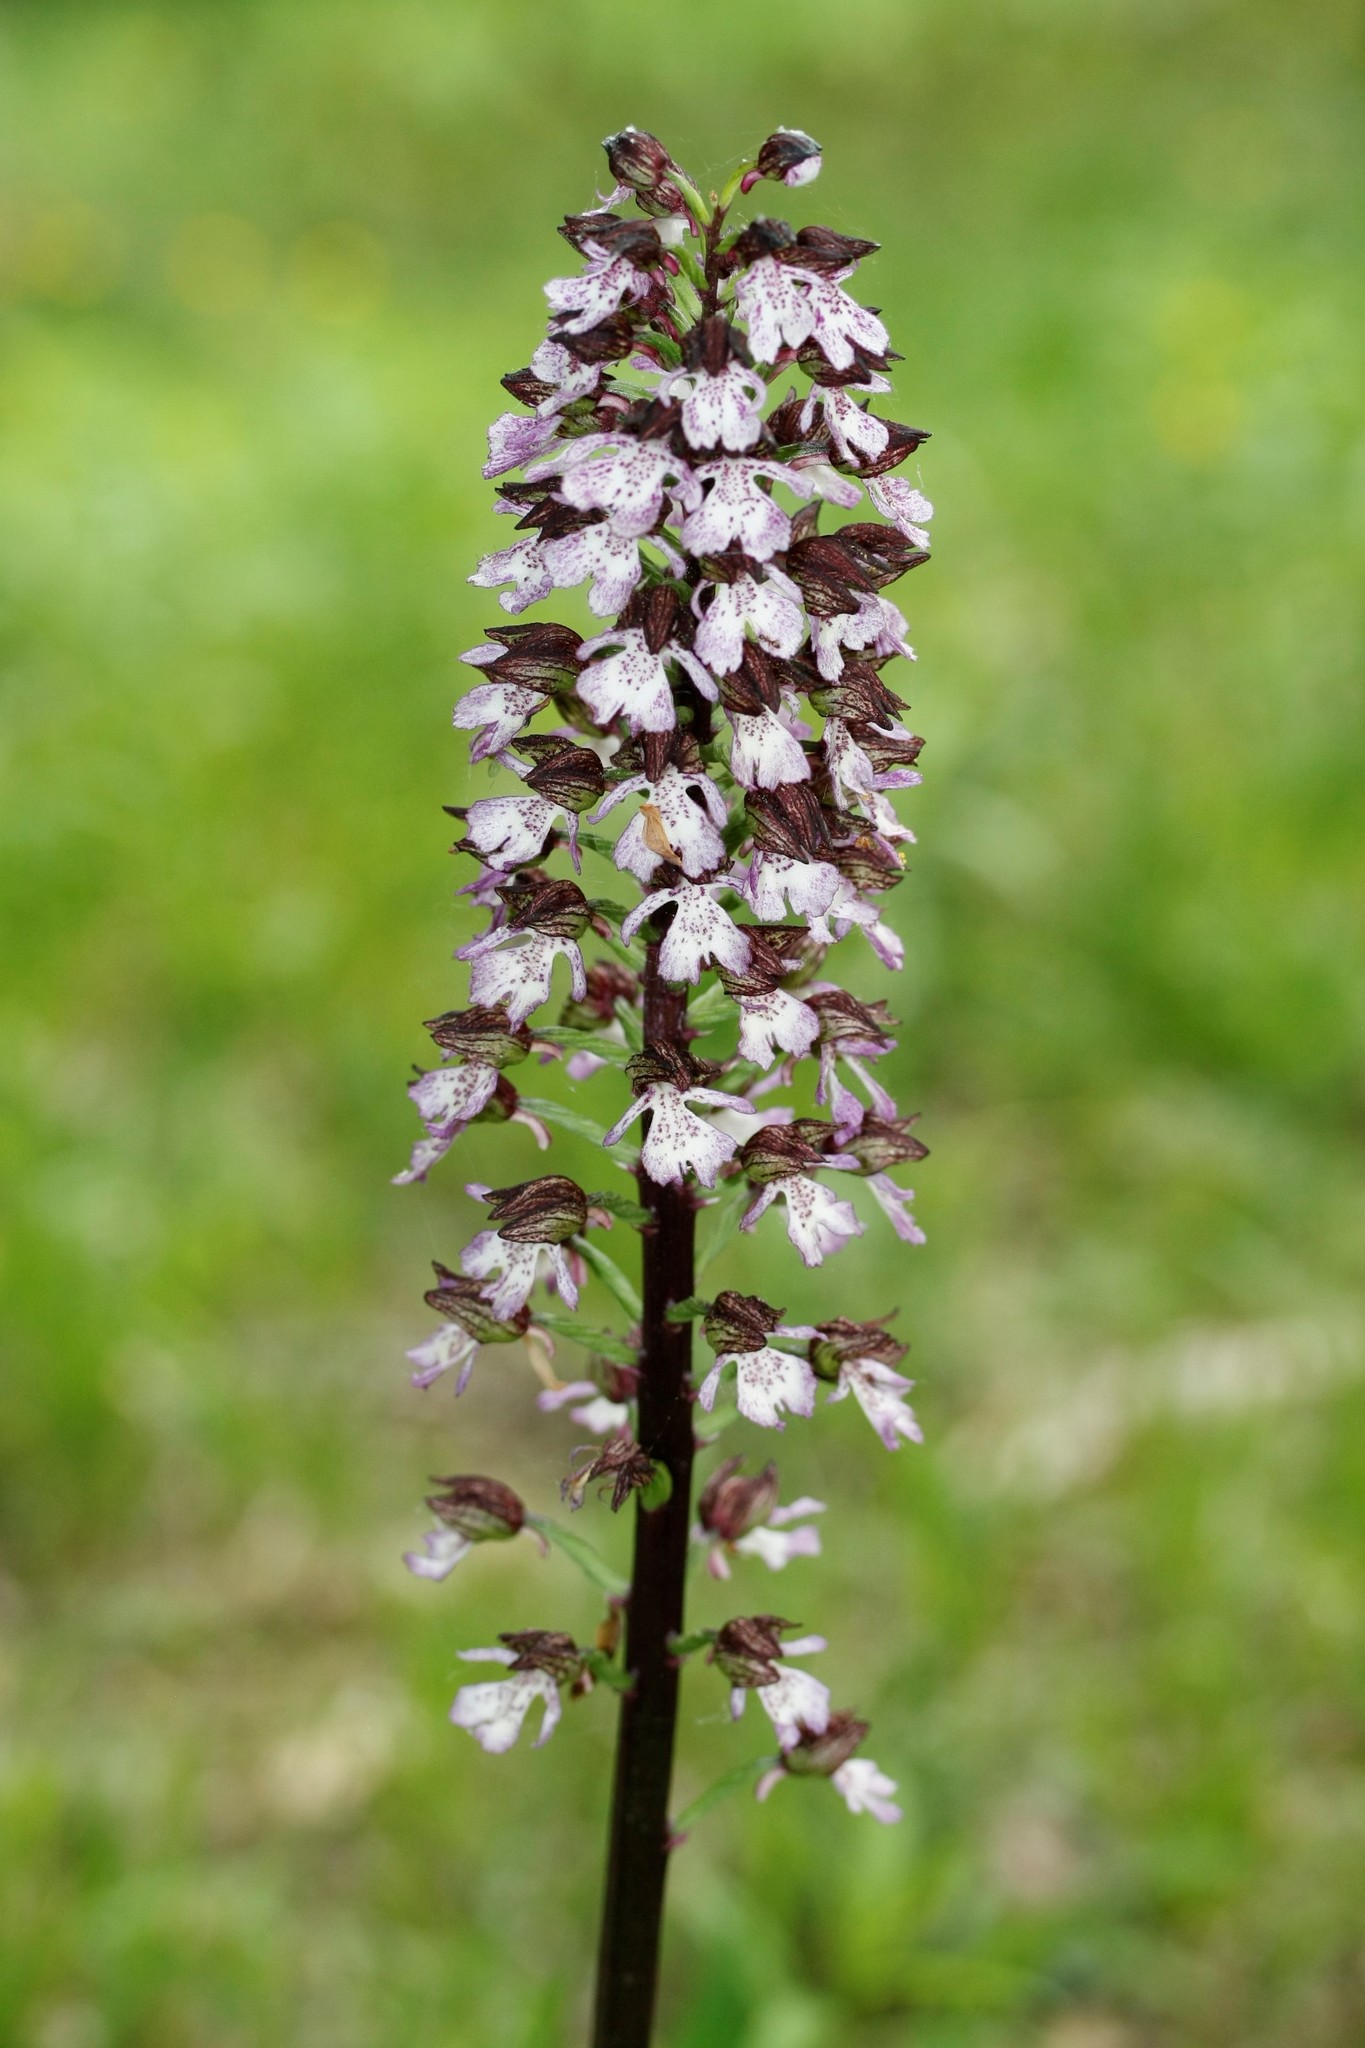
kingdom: Plantae
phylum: Tracheophyta
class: Liliopsida
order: Asparagales
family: Orchidaceae
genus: Orchis
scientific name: Orchis purpurea
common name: Lady orchid
